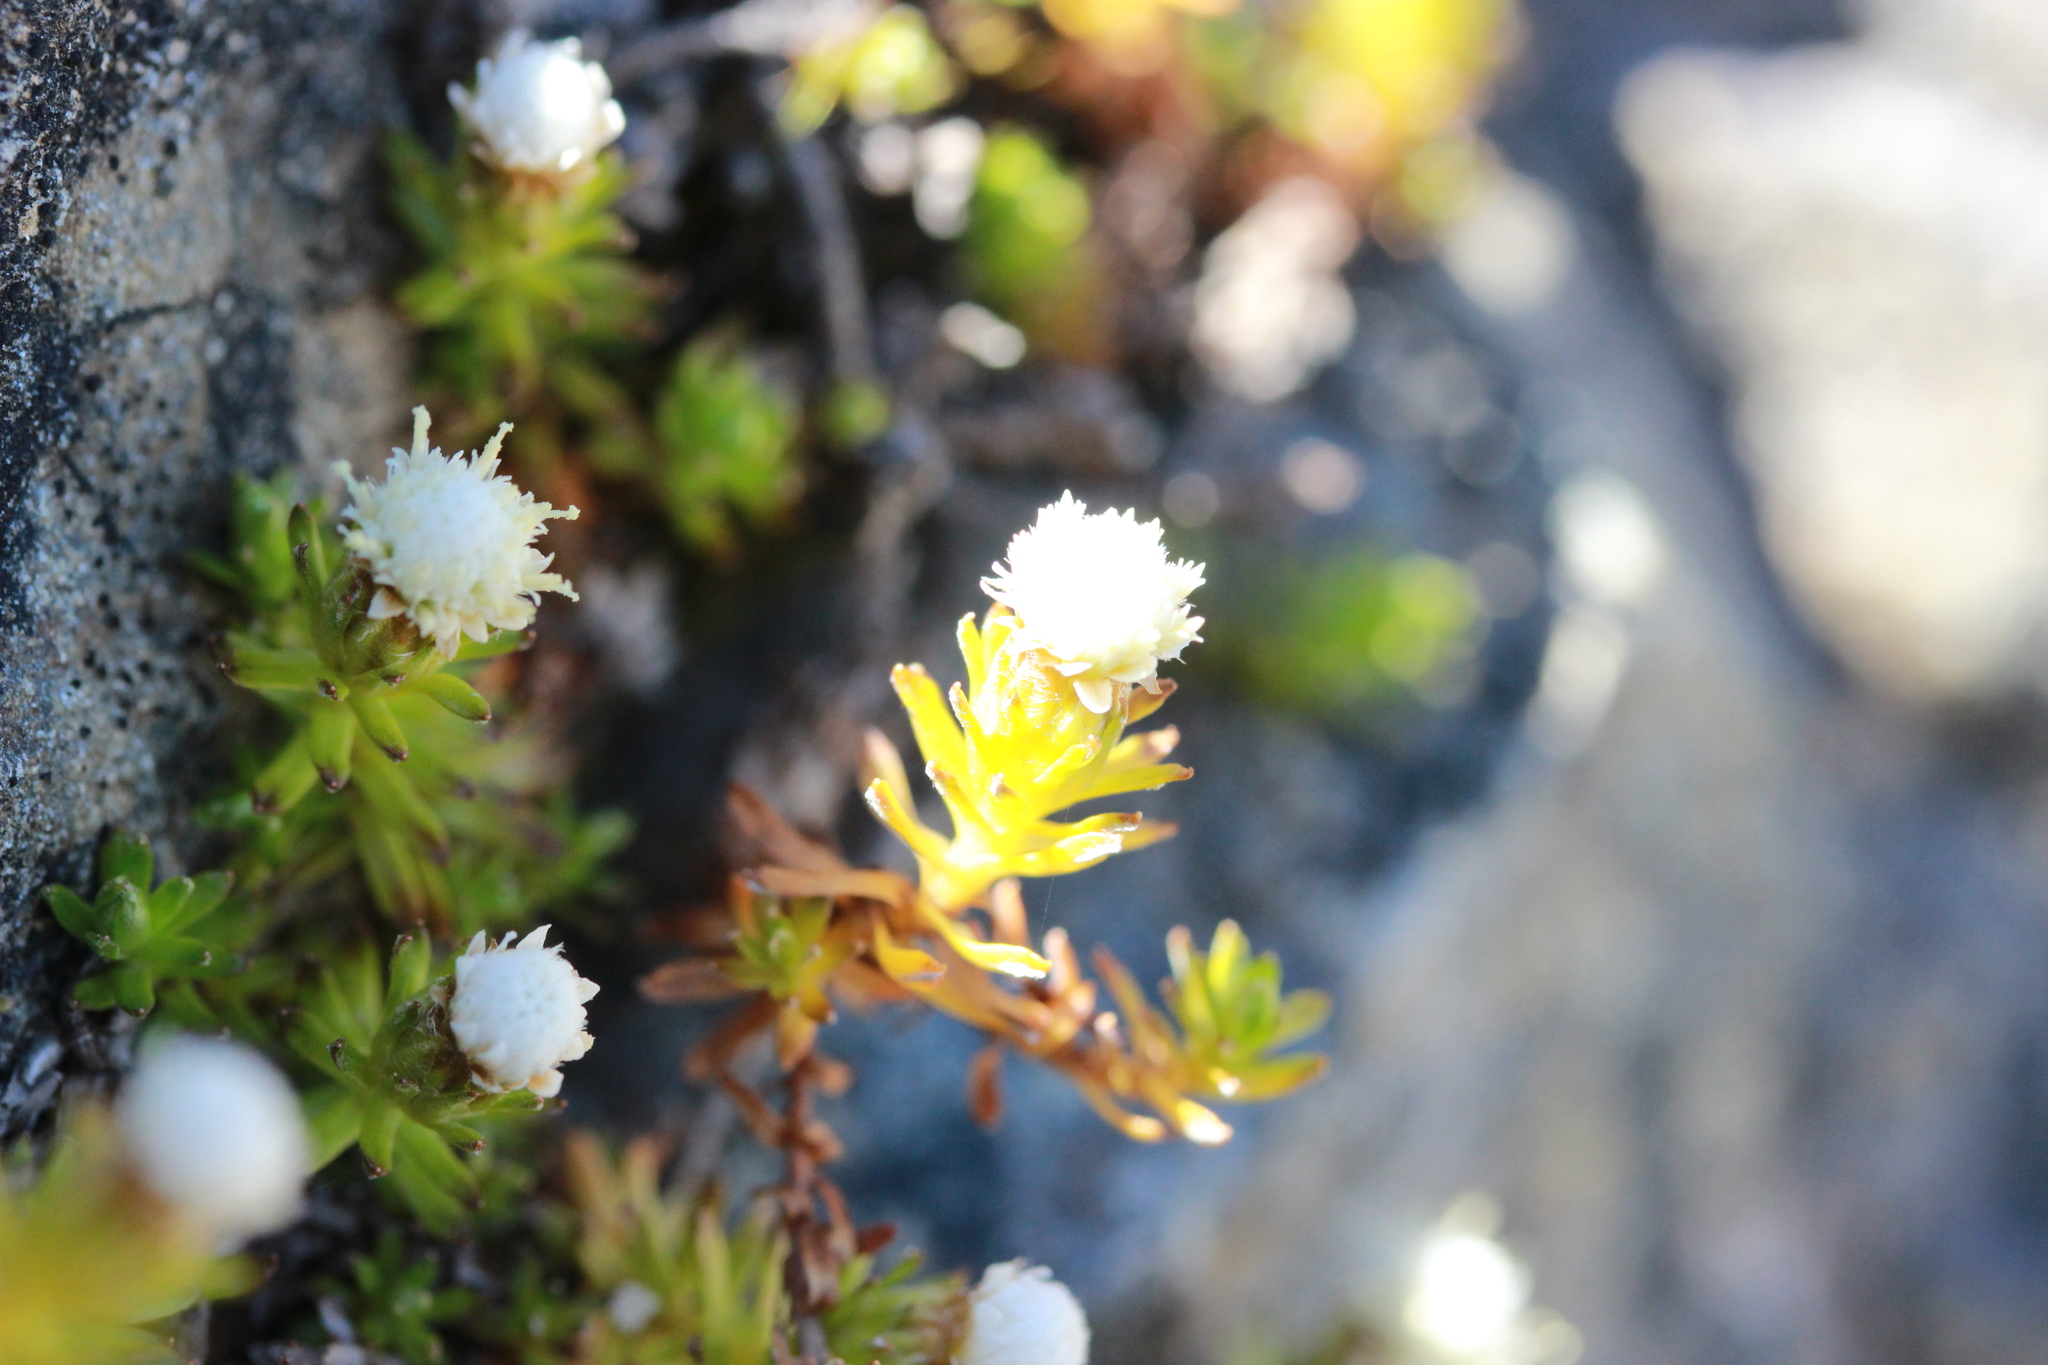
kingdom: Plantae
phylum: Tracheophyta
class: Magnoliopsida
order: Asterales
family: Asteraceae
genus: Raoulia
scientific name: Raoulia glabra
